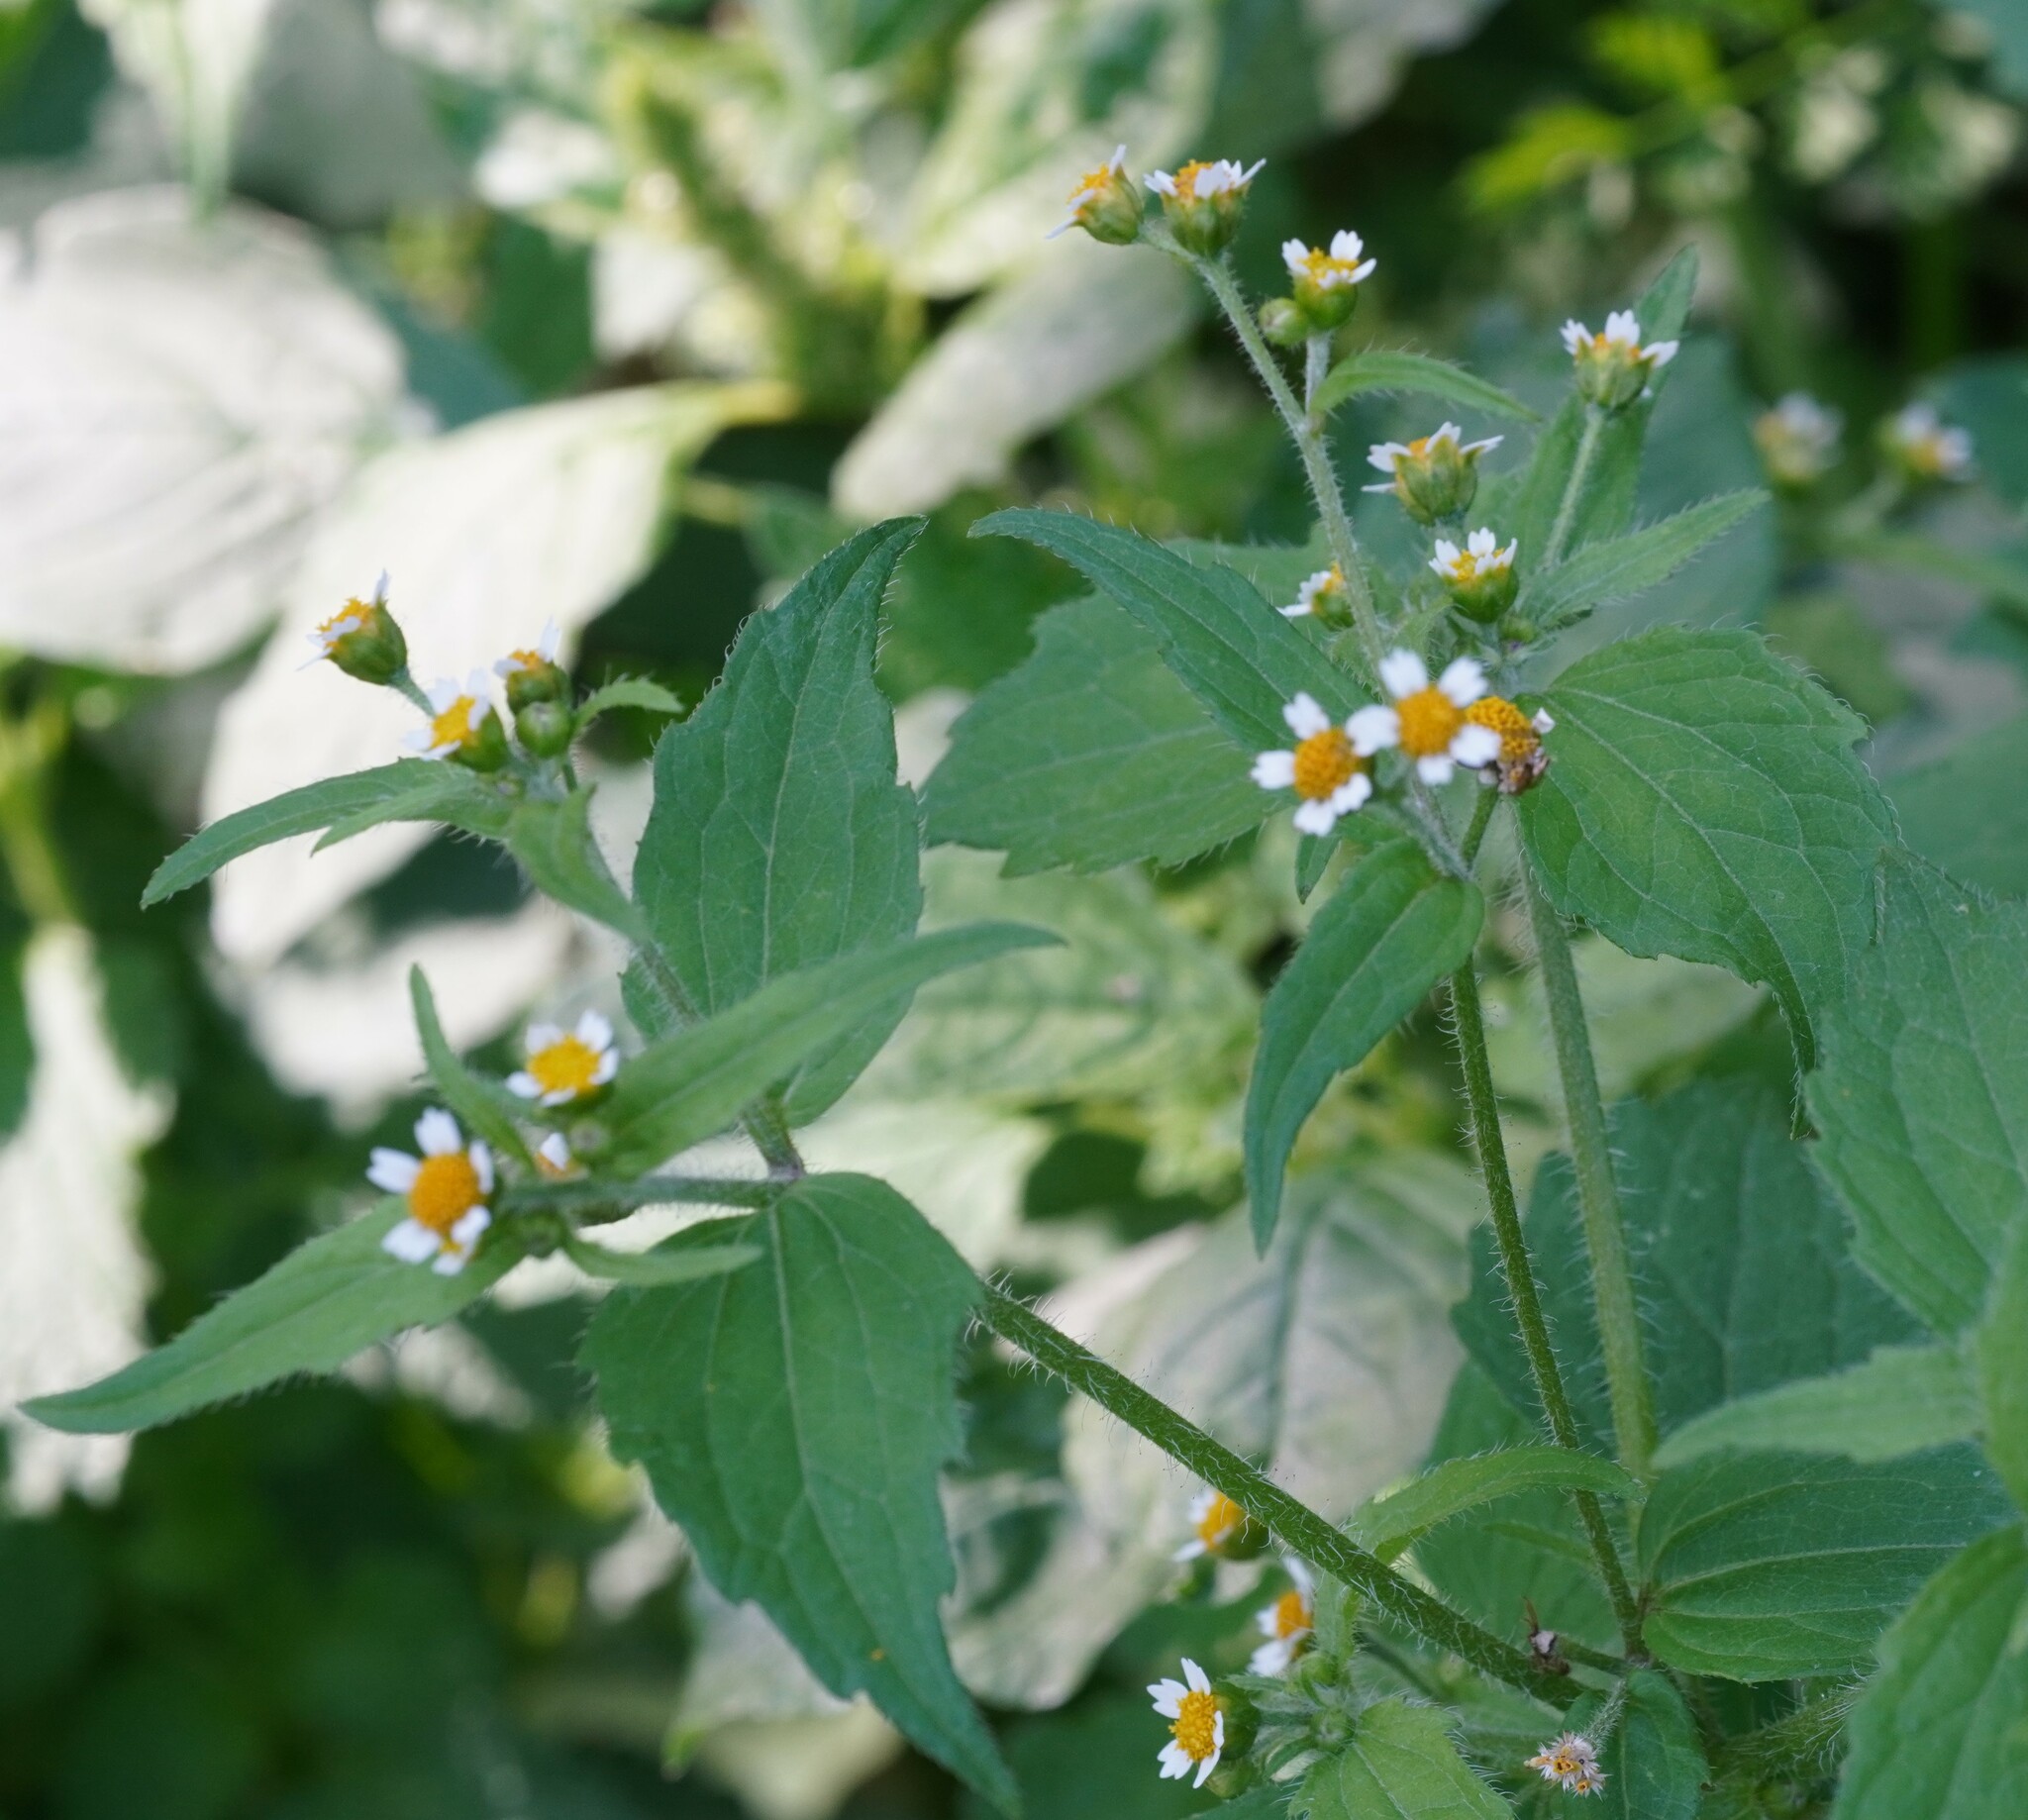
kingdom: Plantae
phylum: Tracheophyta
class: Magnoliopsida
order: Asterales
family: Asteraceae
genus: Galinsoga
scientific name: Galinsoga quadriradiata
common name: Shaggy soldier
